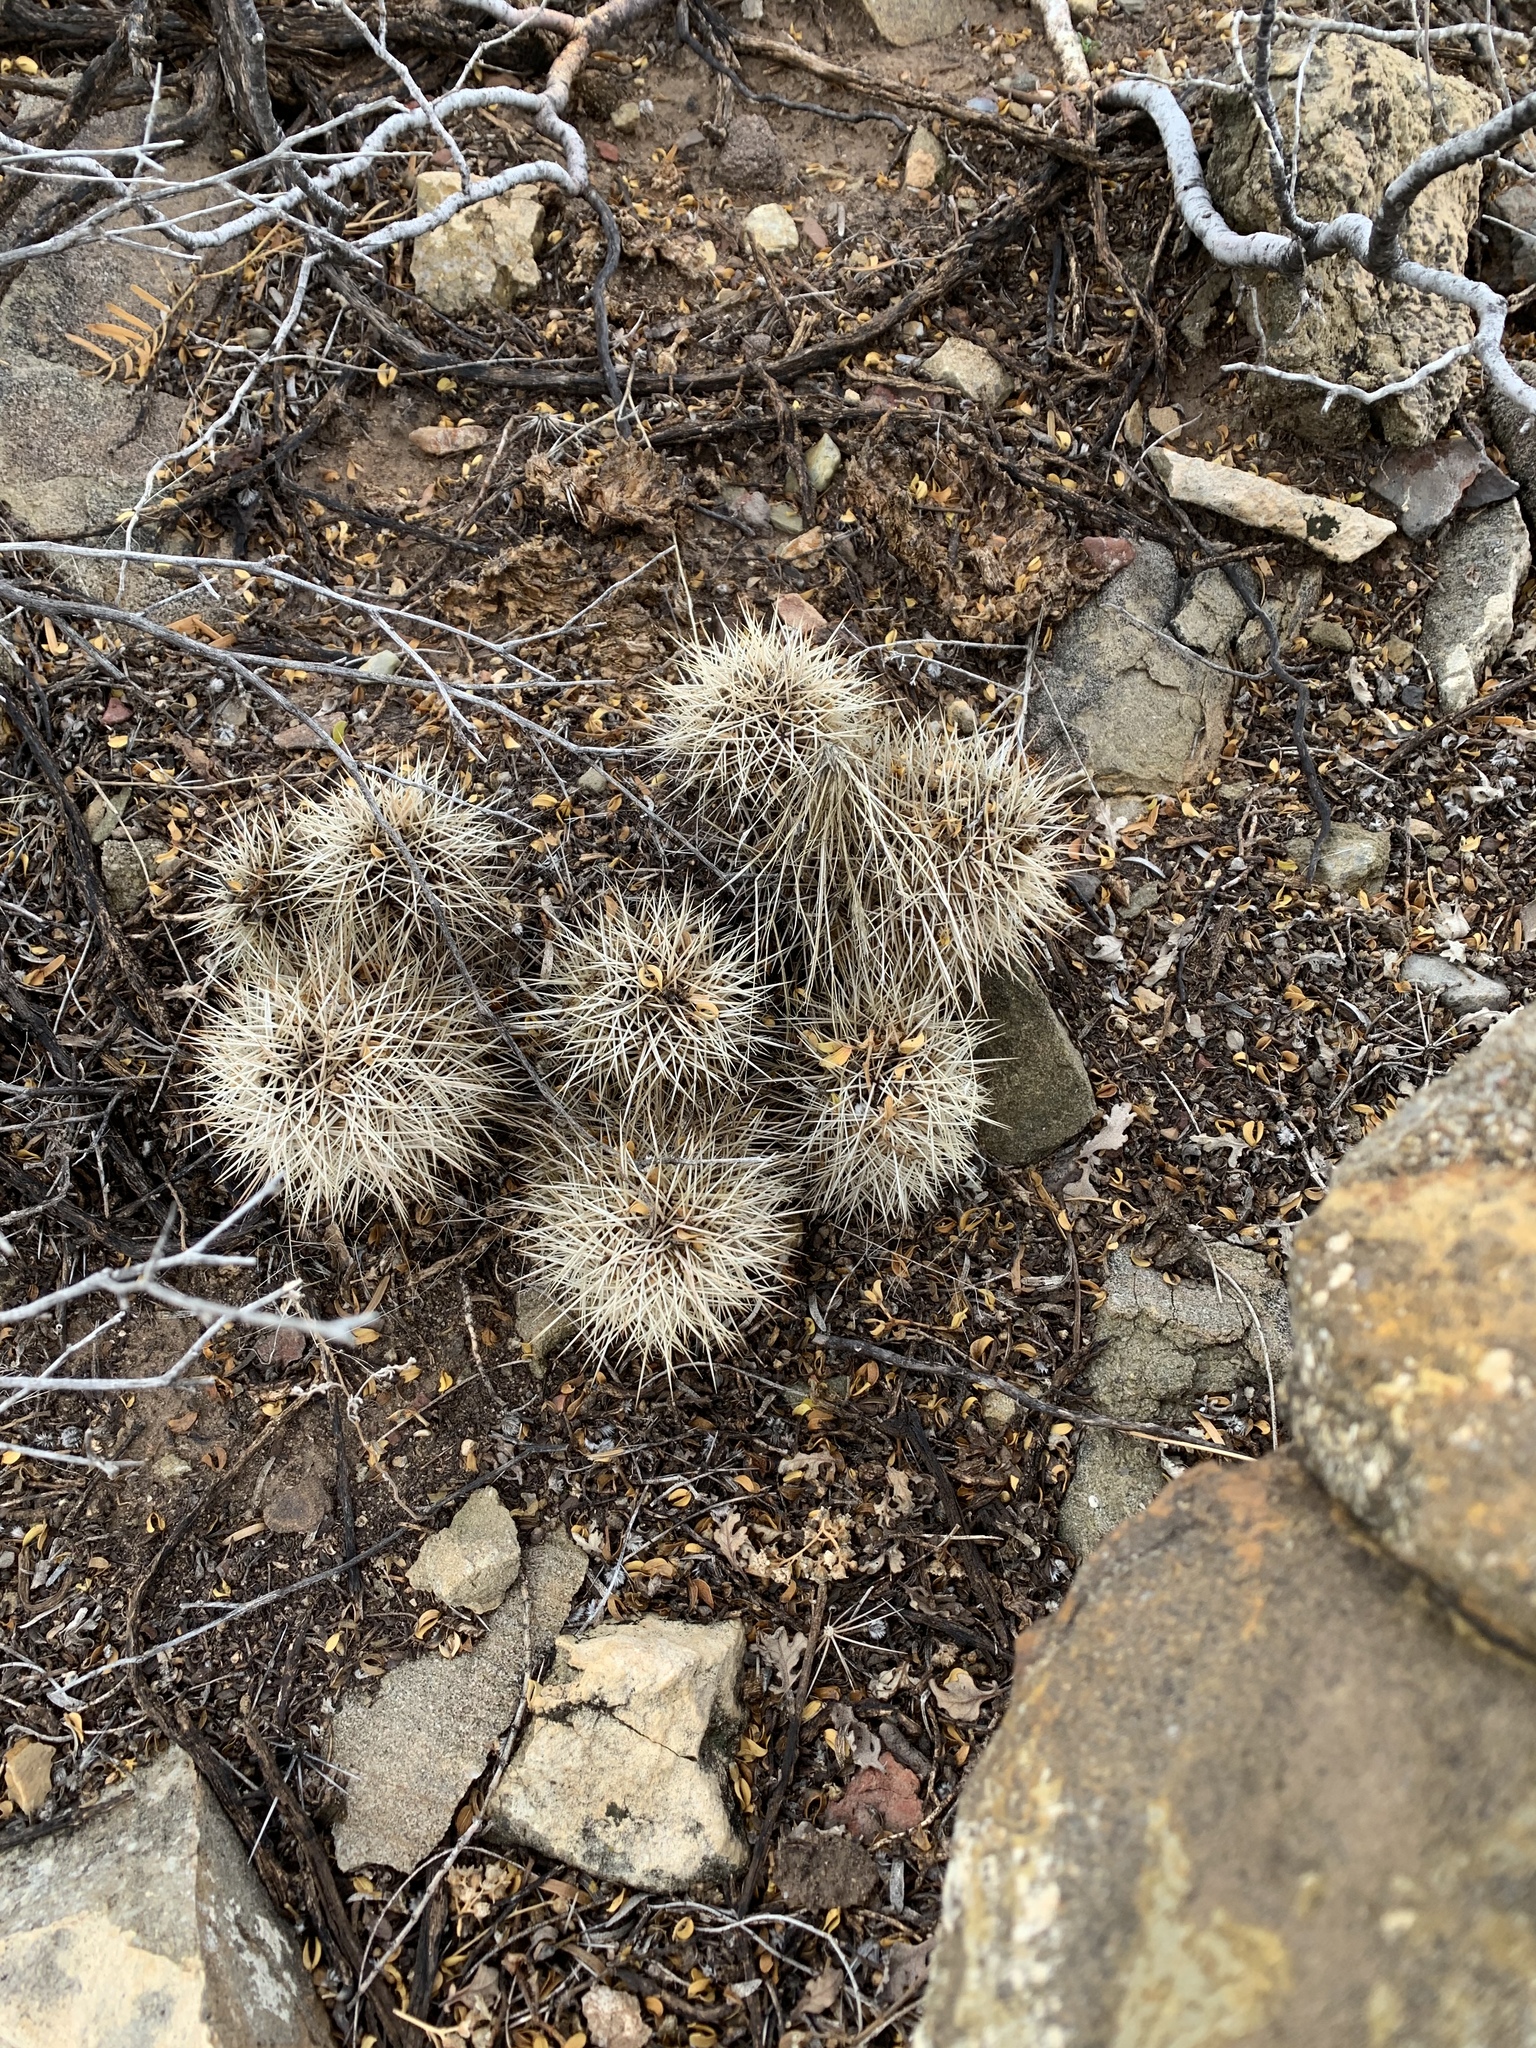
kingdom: Plantae
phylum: Tracheophyta
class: Magnoliopsida
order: Caryophyllales
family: Cactaceae
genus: Echinocereus
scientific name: Echinocereus coccineus
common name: Scarlet hedgehog cactus
